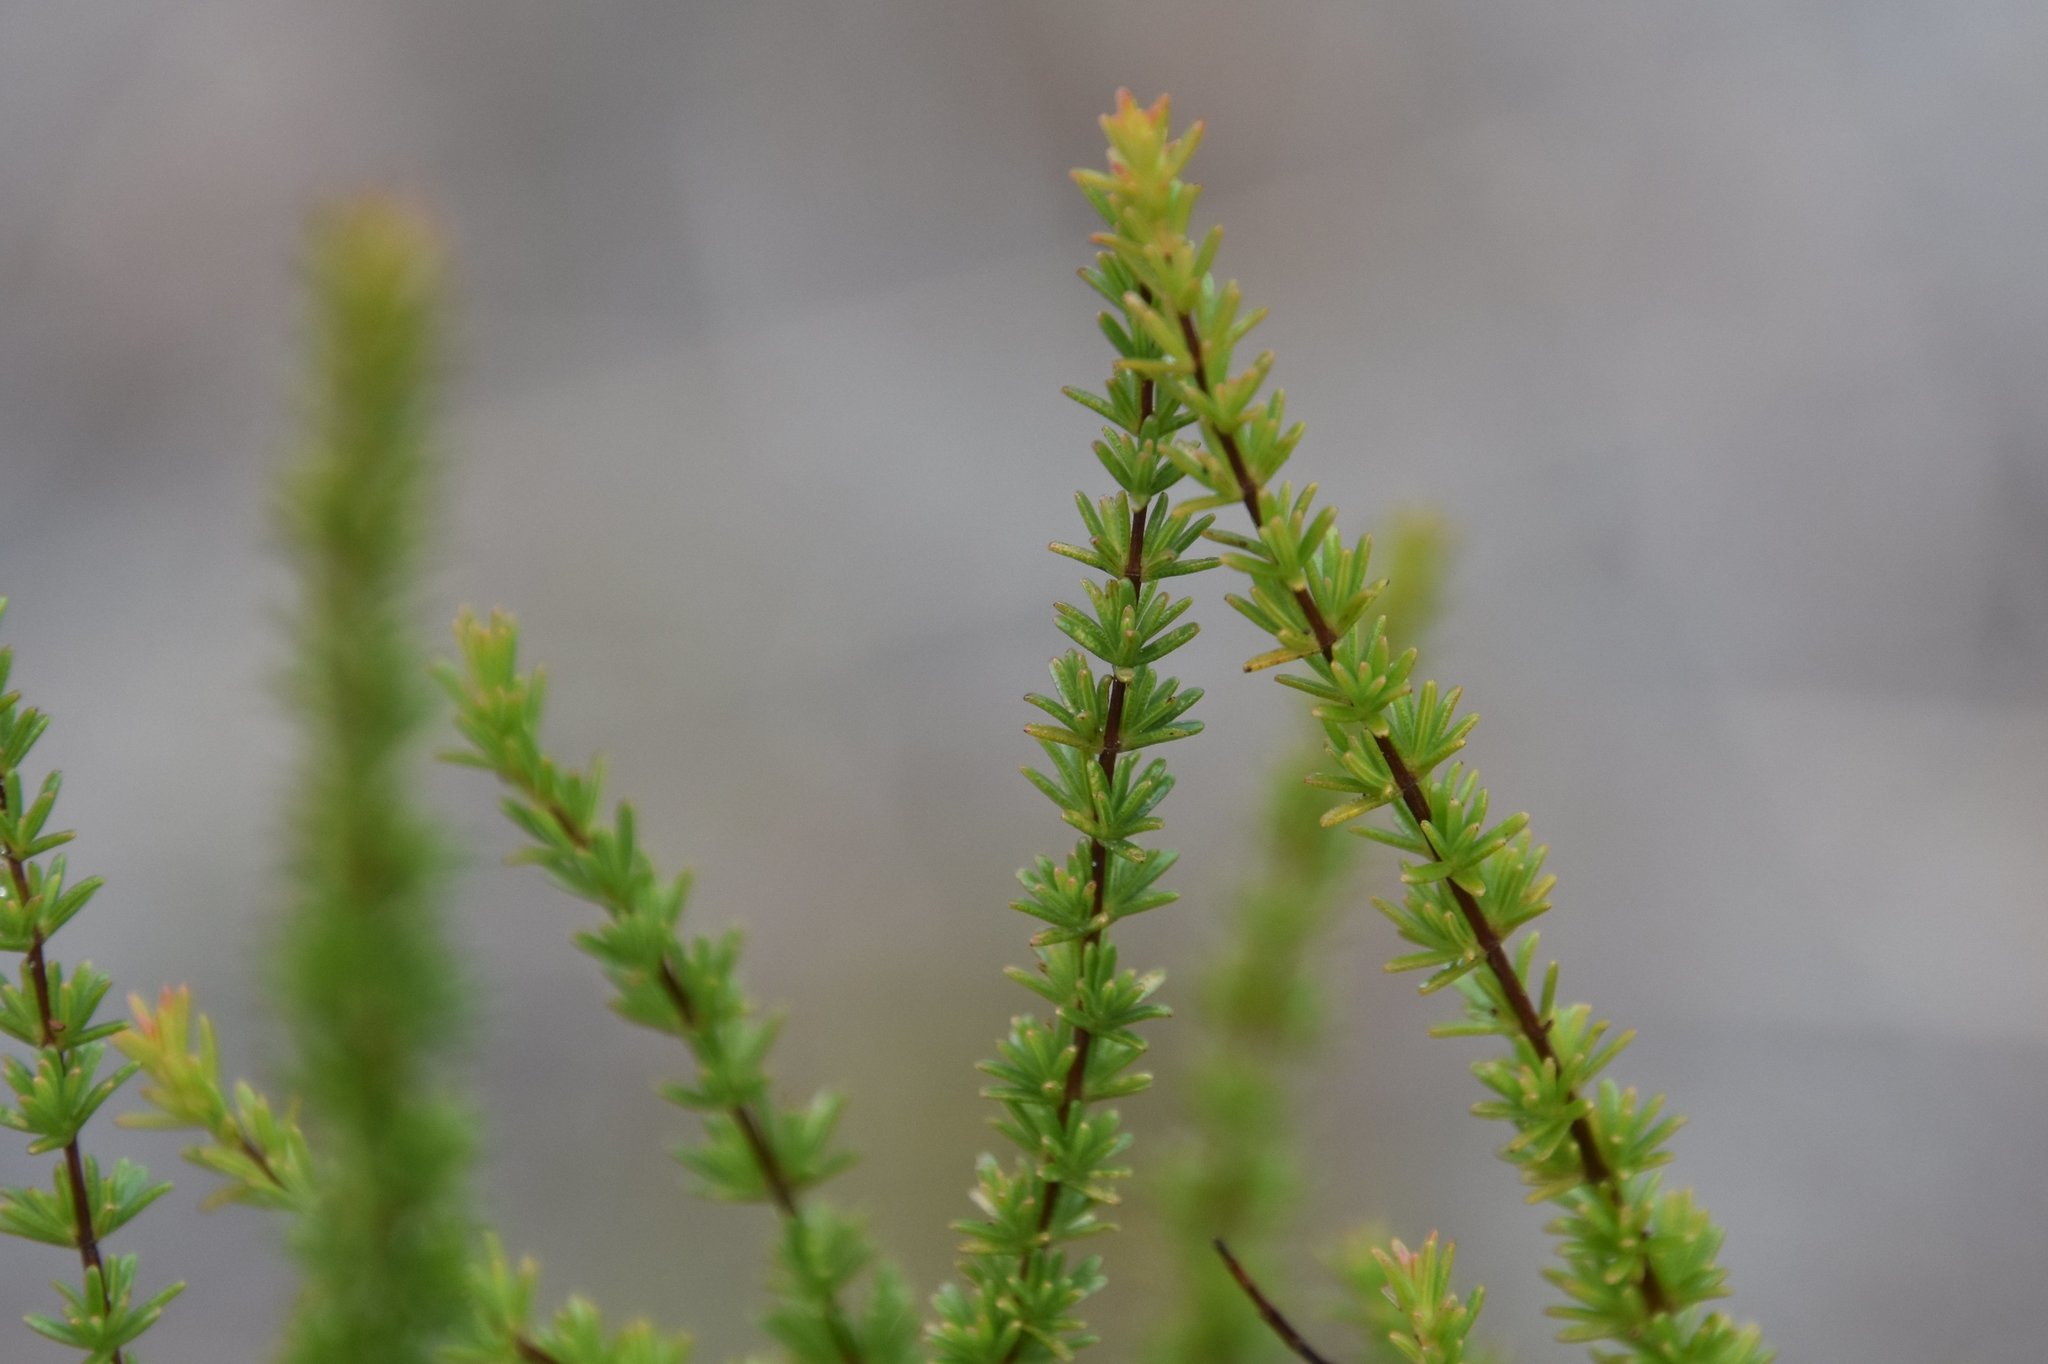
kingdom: Plantae
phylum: Tracheophyta
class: Magnoliopsida
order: Malpighiales
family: Hypericaceae
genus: Hypericum
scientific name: Hypericum tenuifolium
